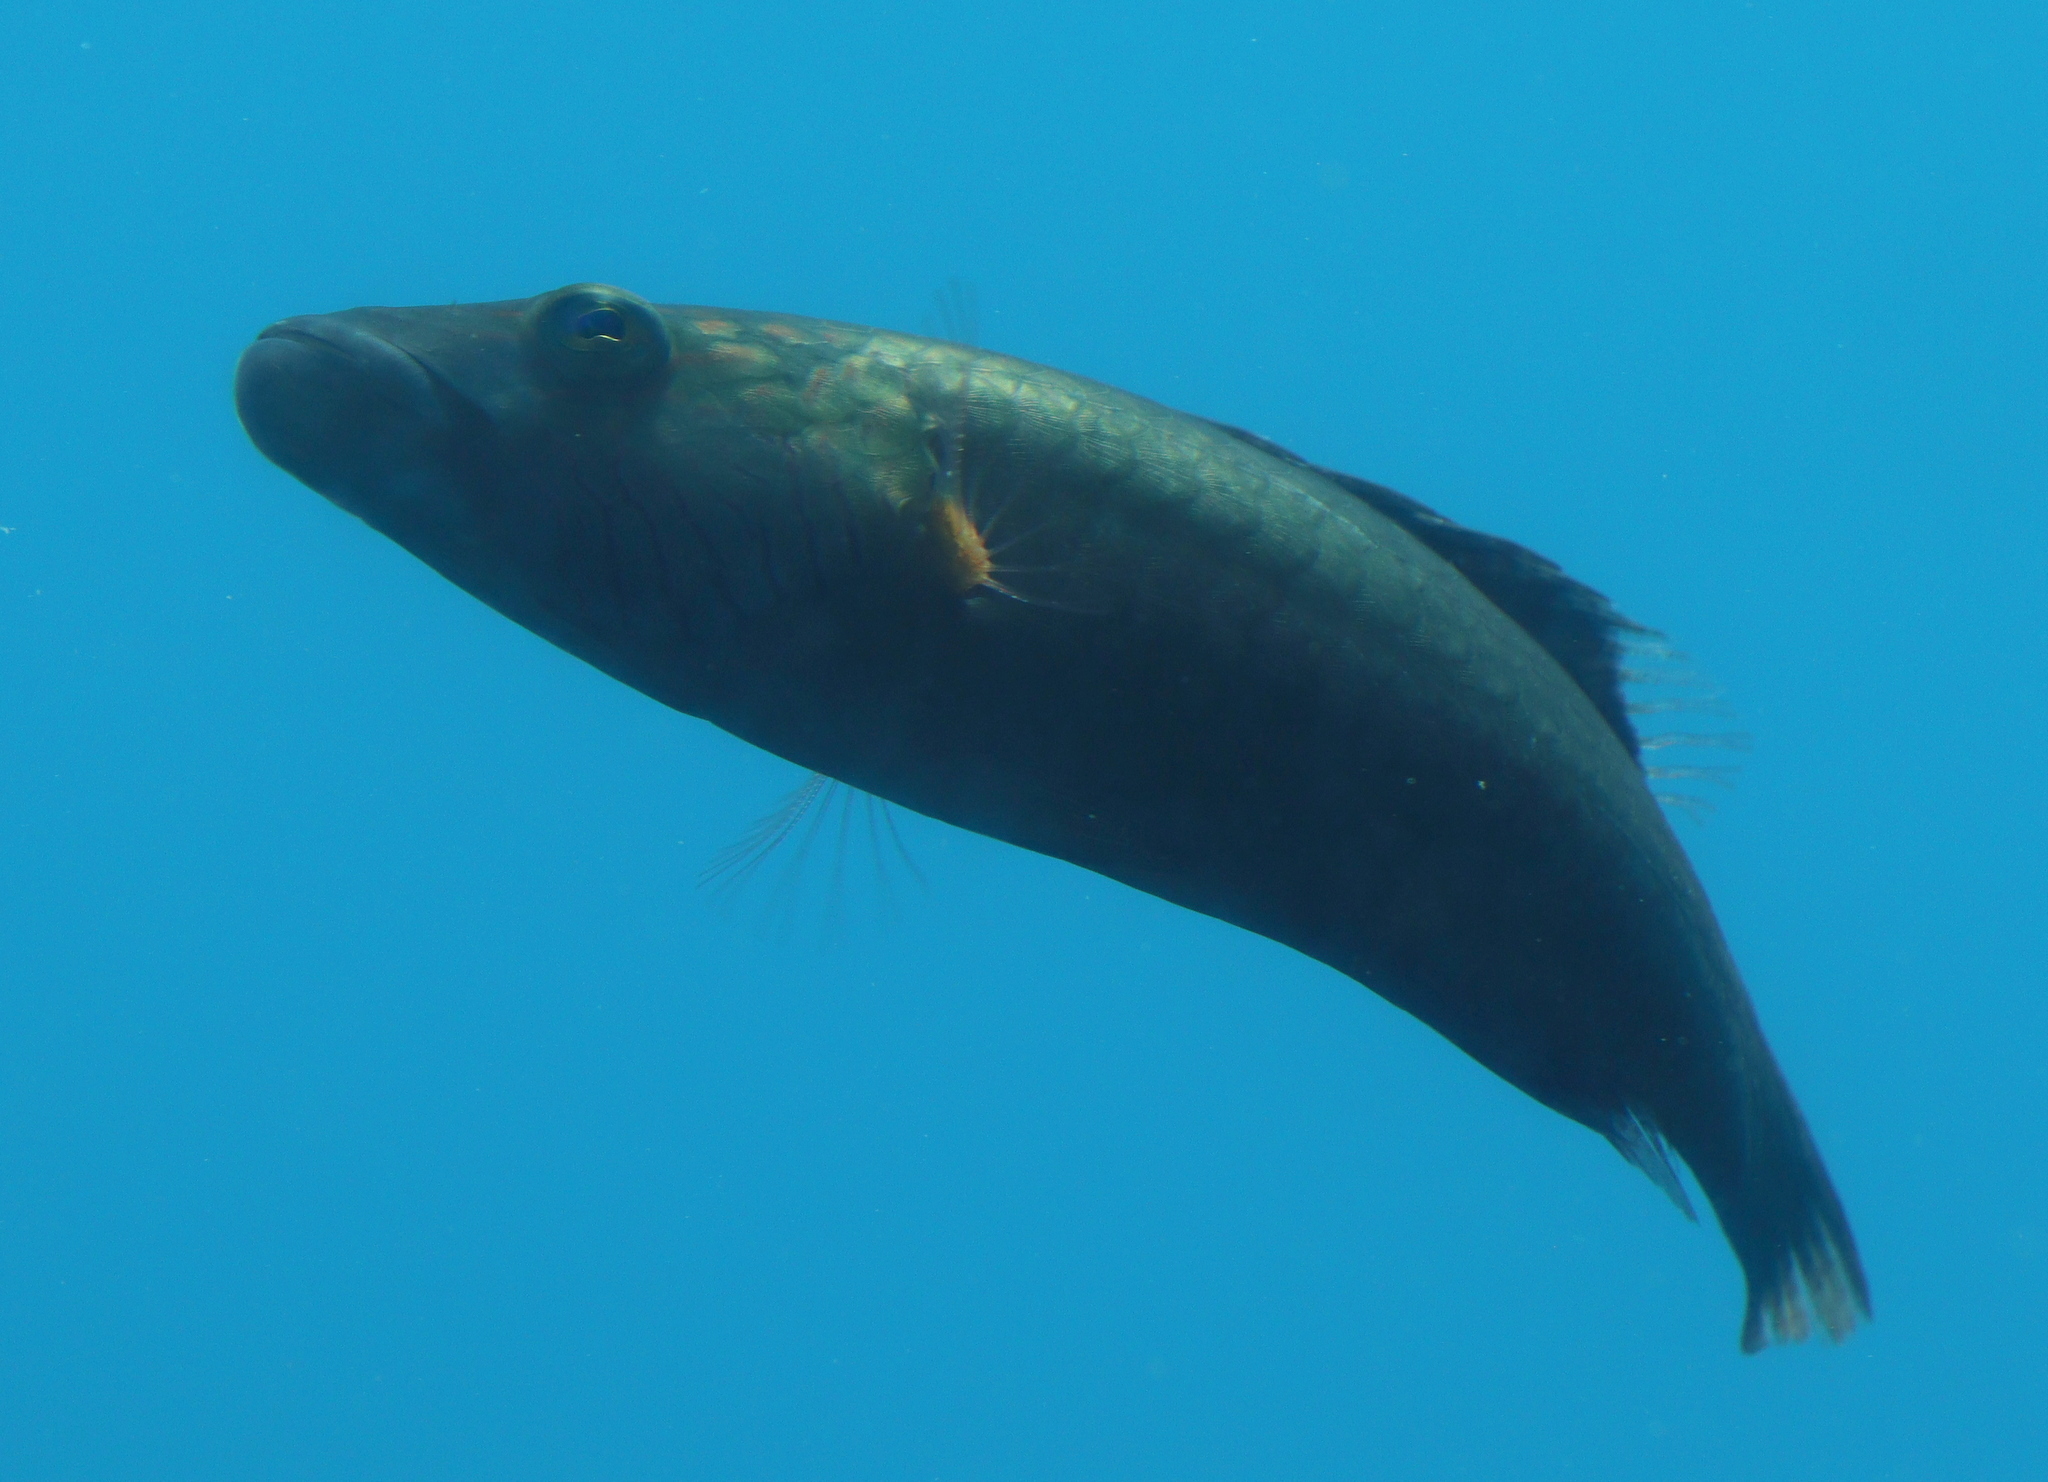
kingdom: Animalia
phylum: Chordata
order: Perciformes
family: Labridae
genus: Oxycheilinus
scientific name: Oxycheilinus digramma
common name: Bandcheek wrasse
